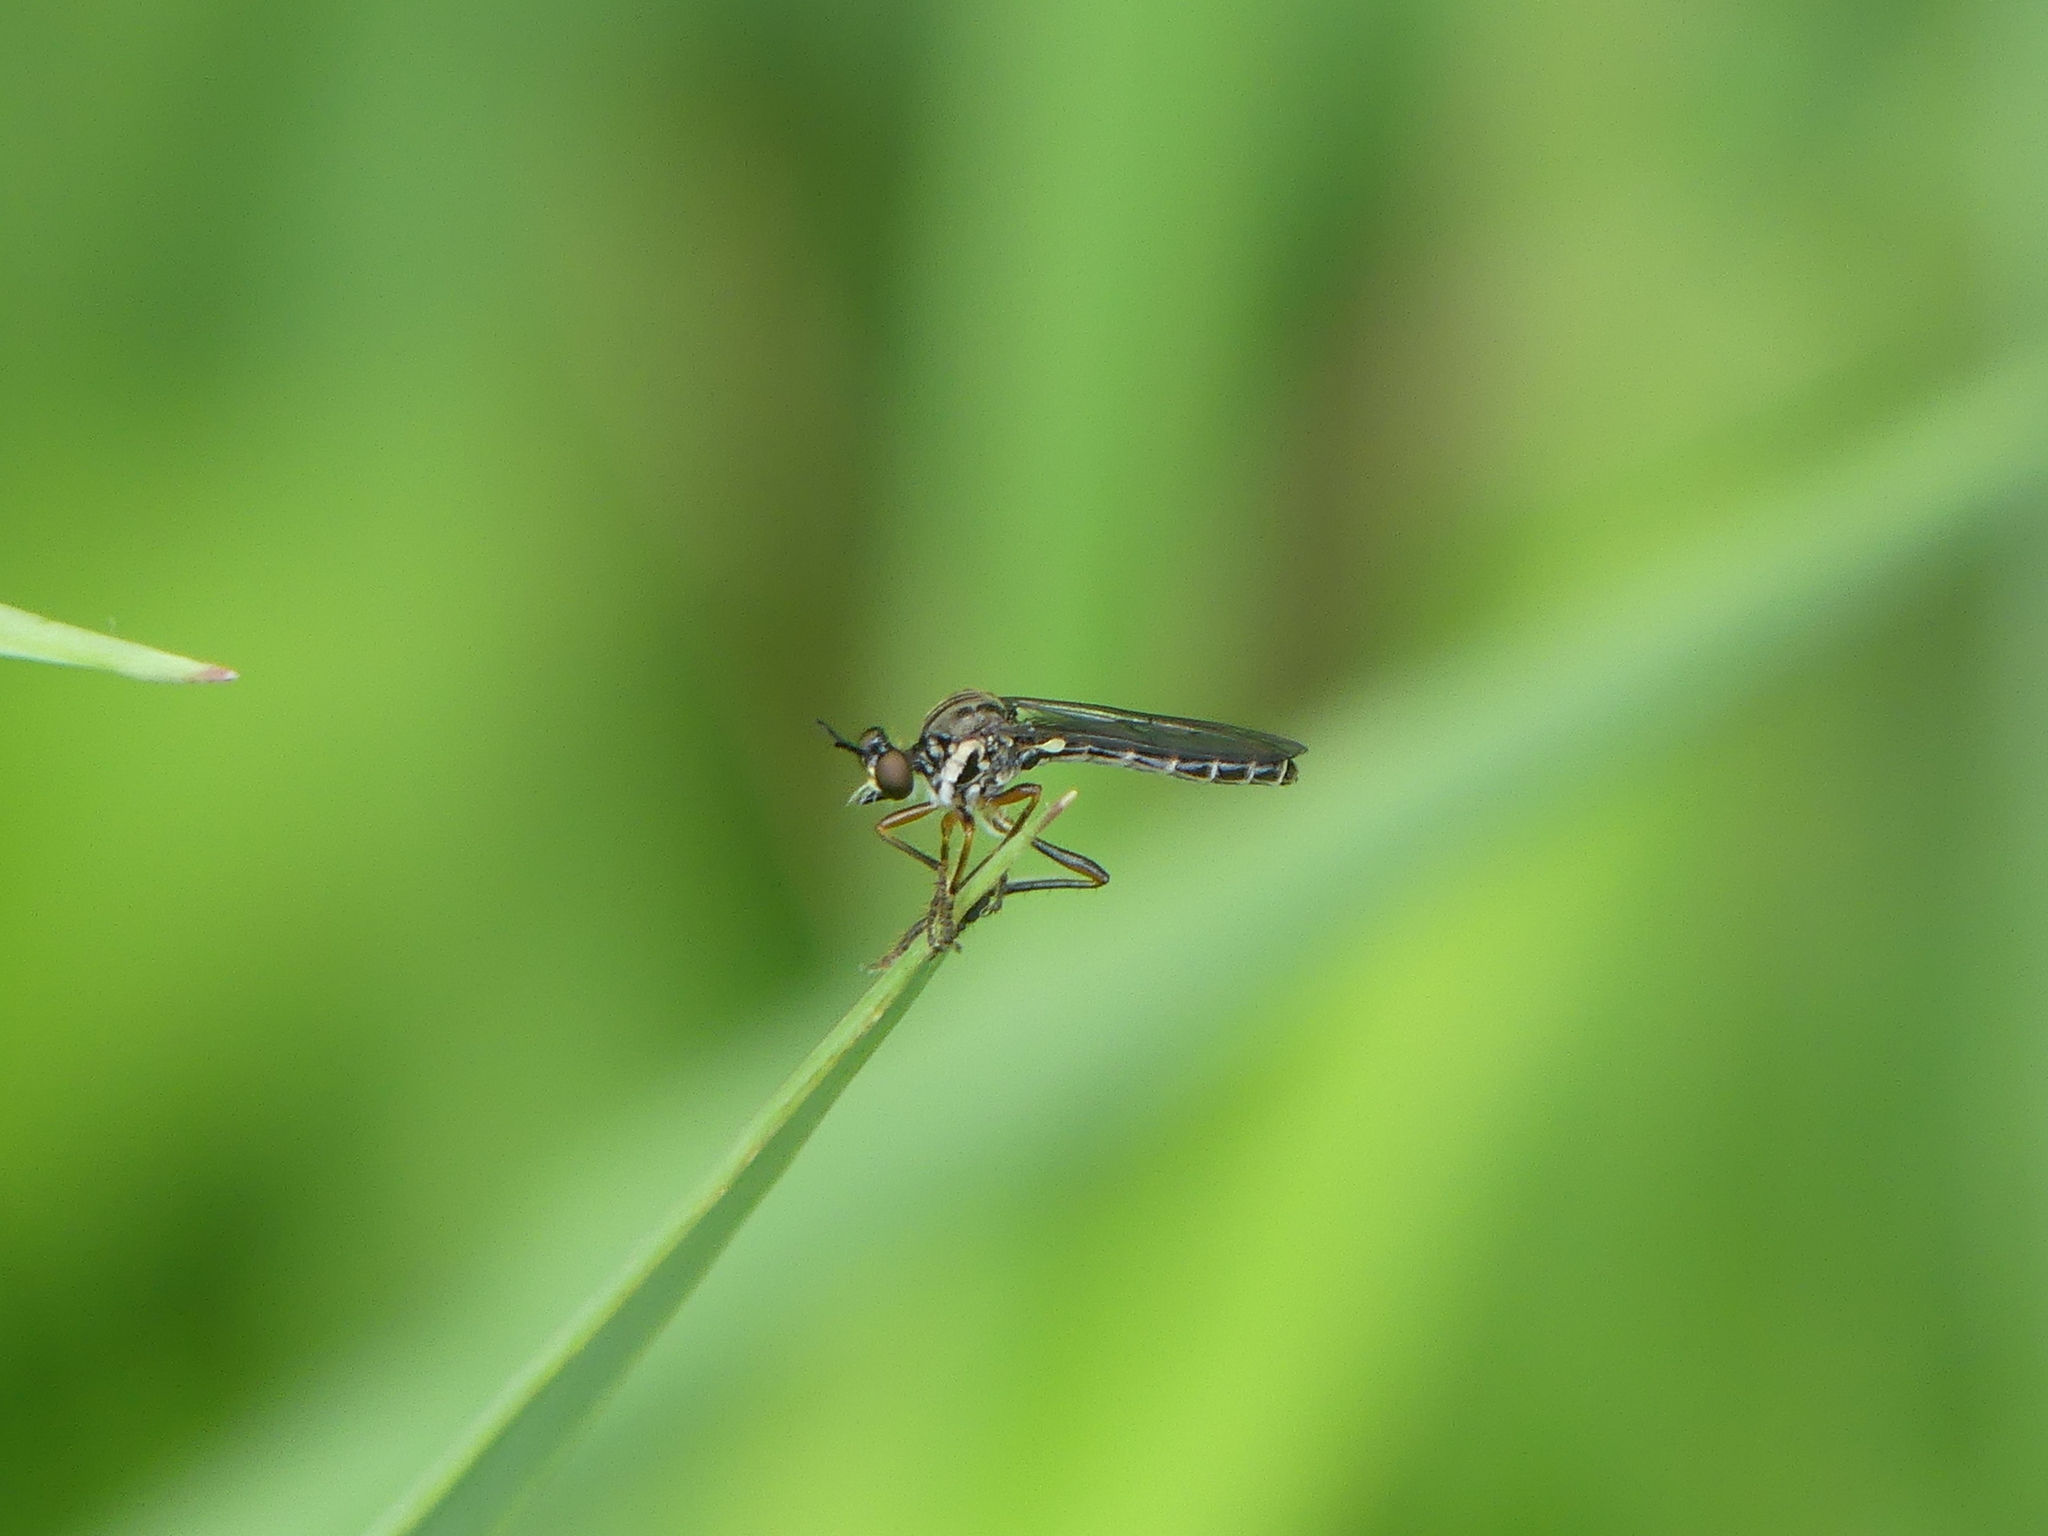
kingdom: Animalia
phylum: Arthropoda
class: Insecta
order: Diptera
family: Asilidae
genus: Dioctria
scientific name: Dioctria hyalipennis
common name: Stripe-legged robberfly
